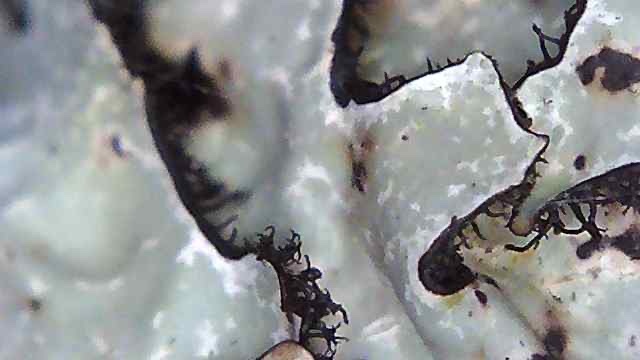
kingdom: Fungi
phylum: Ascomycota
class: Lecanoromycetes
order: Lecanorales
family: Parmeliaceae
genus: Parmelia
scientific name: Parmelia sulcata
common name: Netted shield lichen
